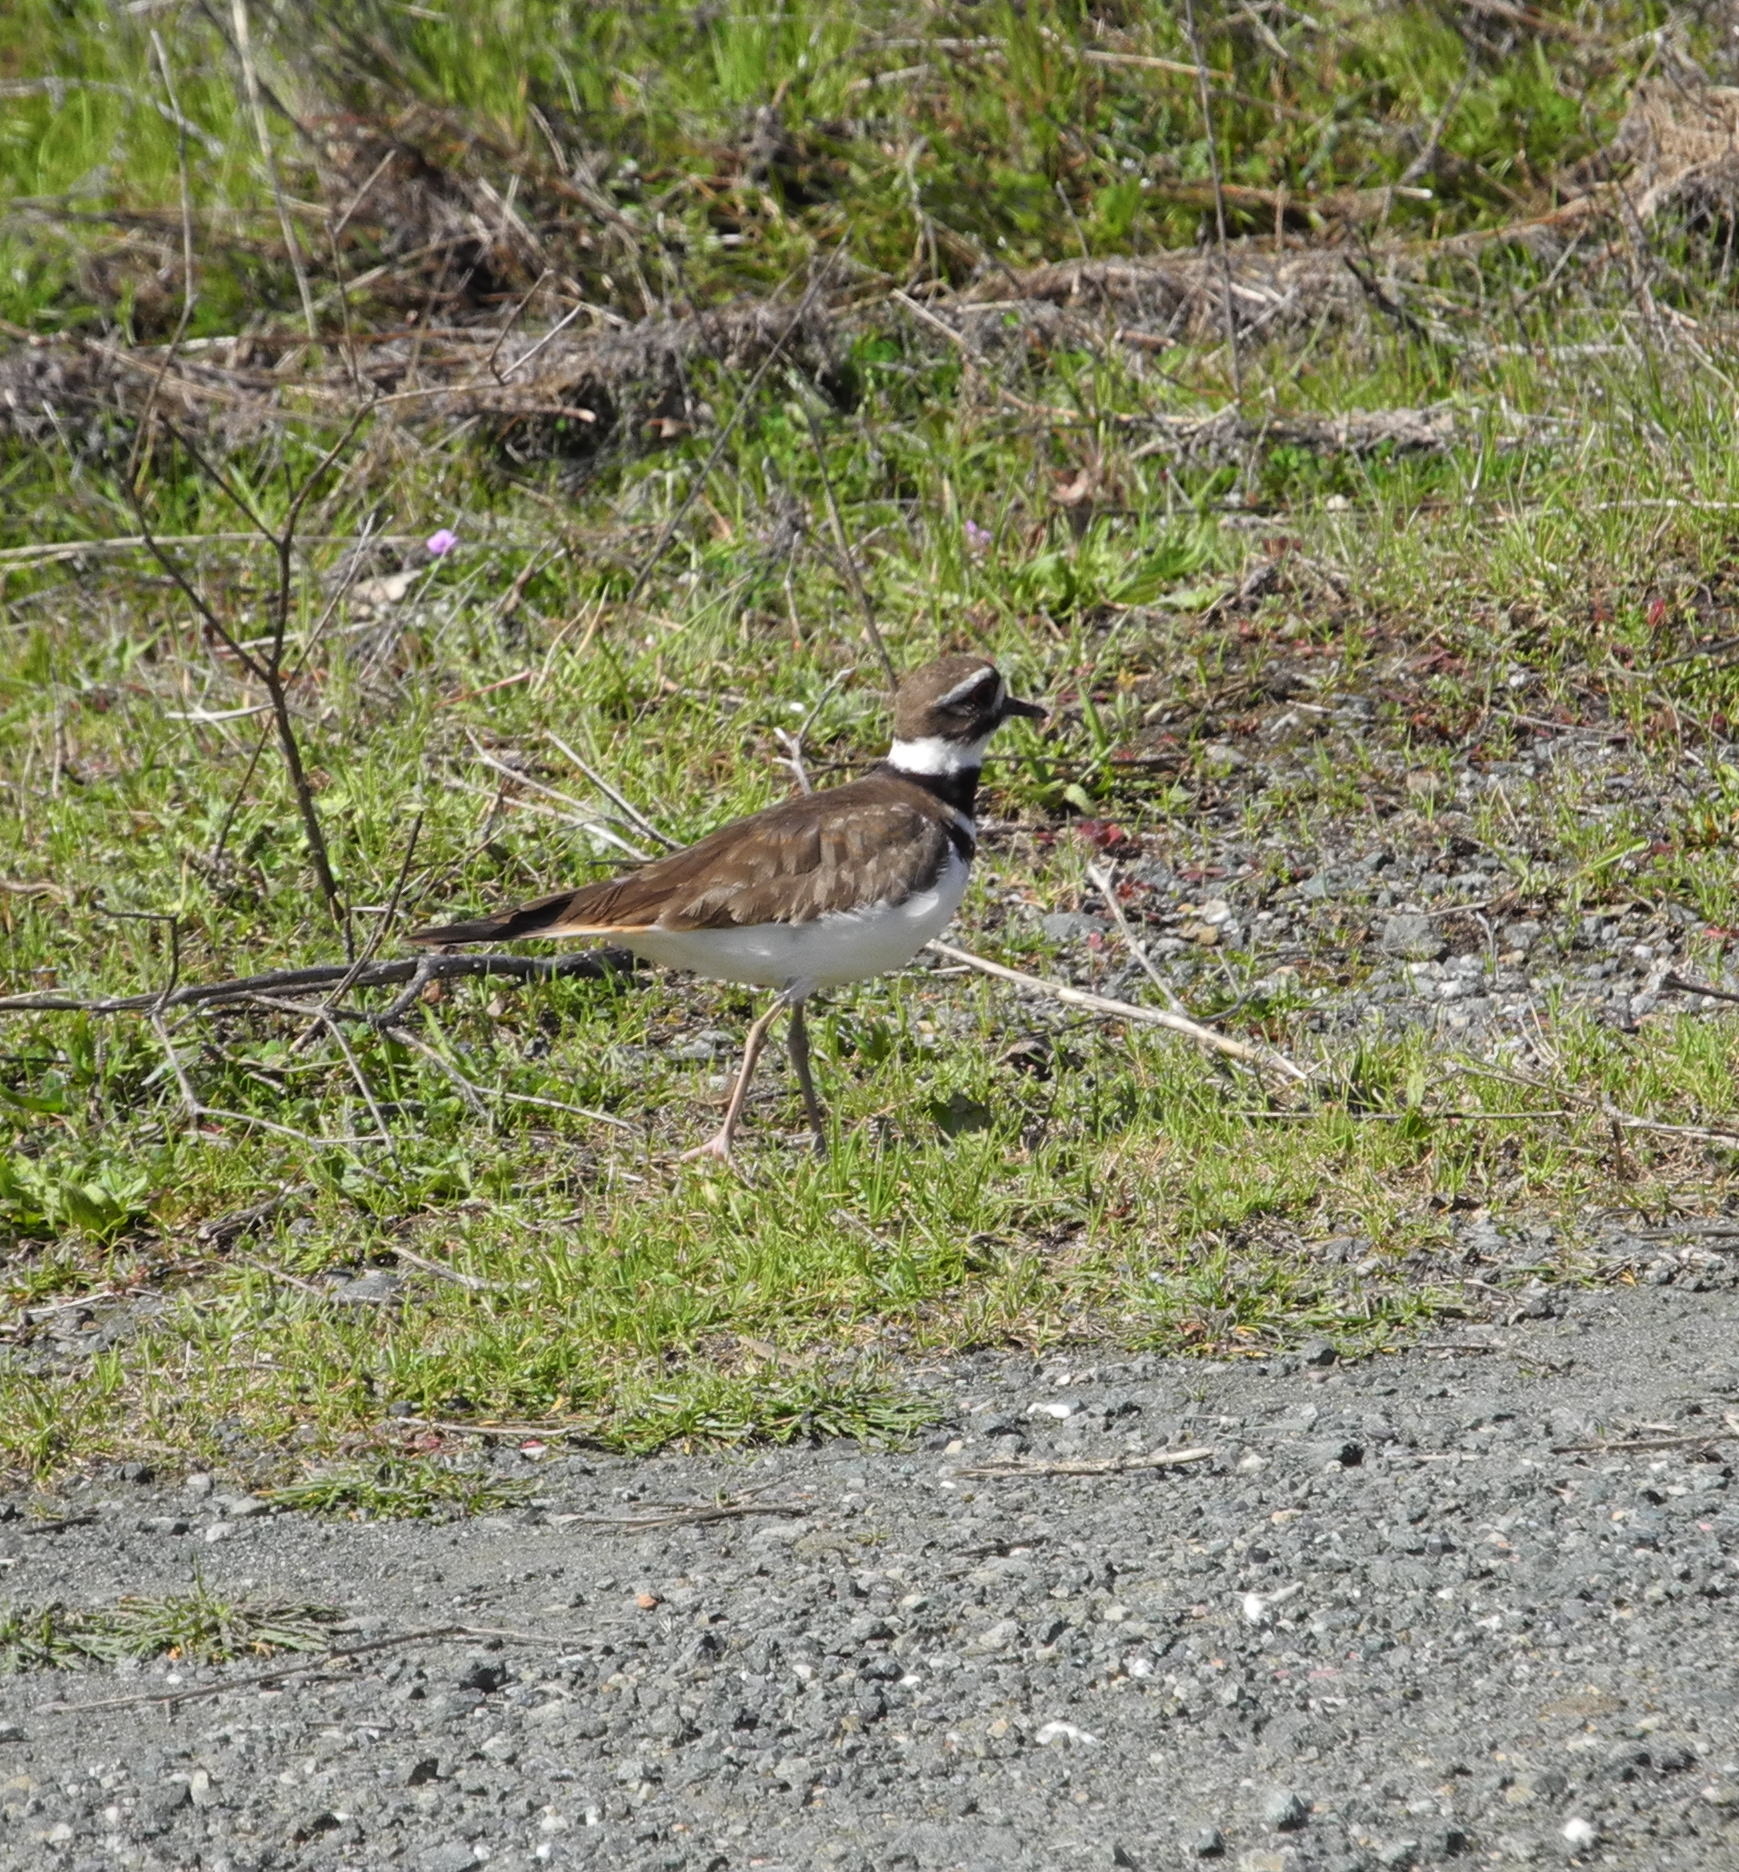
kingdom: Animalia
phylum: Chordata
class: Aves
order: Charadriiformes
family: Charadriidae
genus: Charadrius
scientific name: Charadrius vociferus
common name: Killdeer
